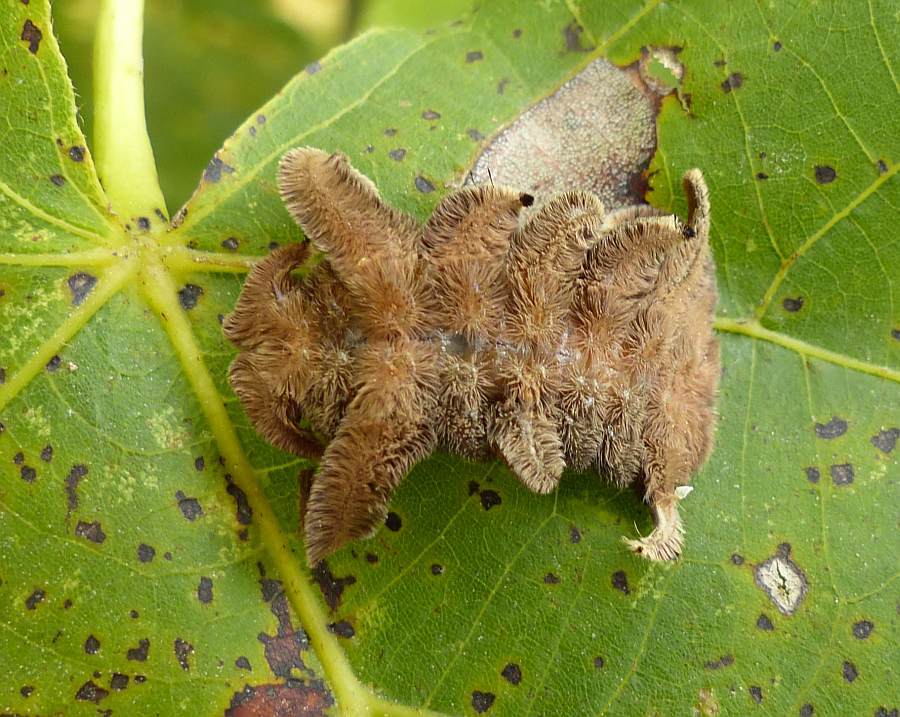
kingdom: Animalia
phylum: Arthropoda
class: Insecta
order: Lepidoptera
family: Limacodidae
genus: Phobetron
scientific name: Phobetron pithecium
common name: Hag moth
